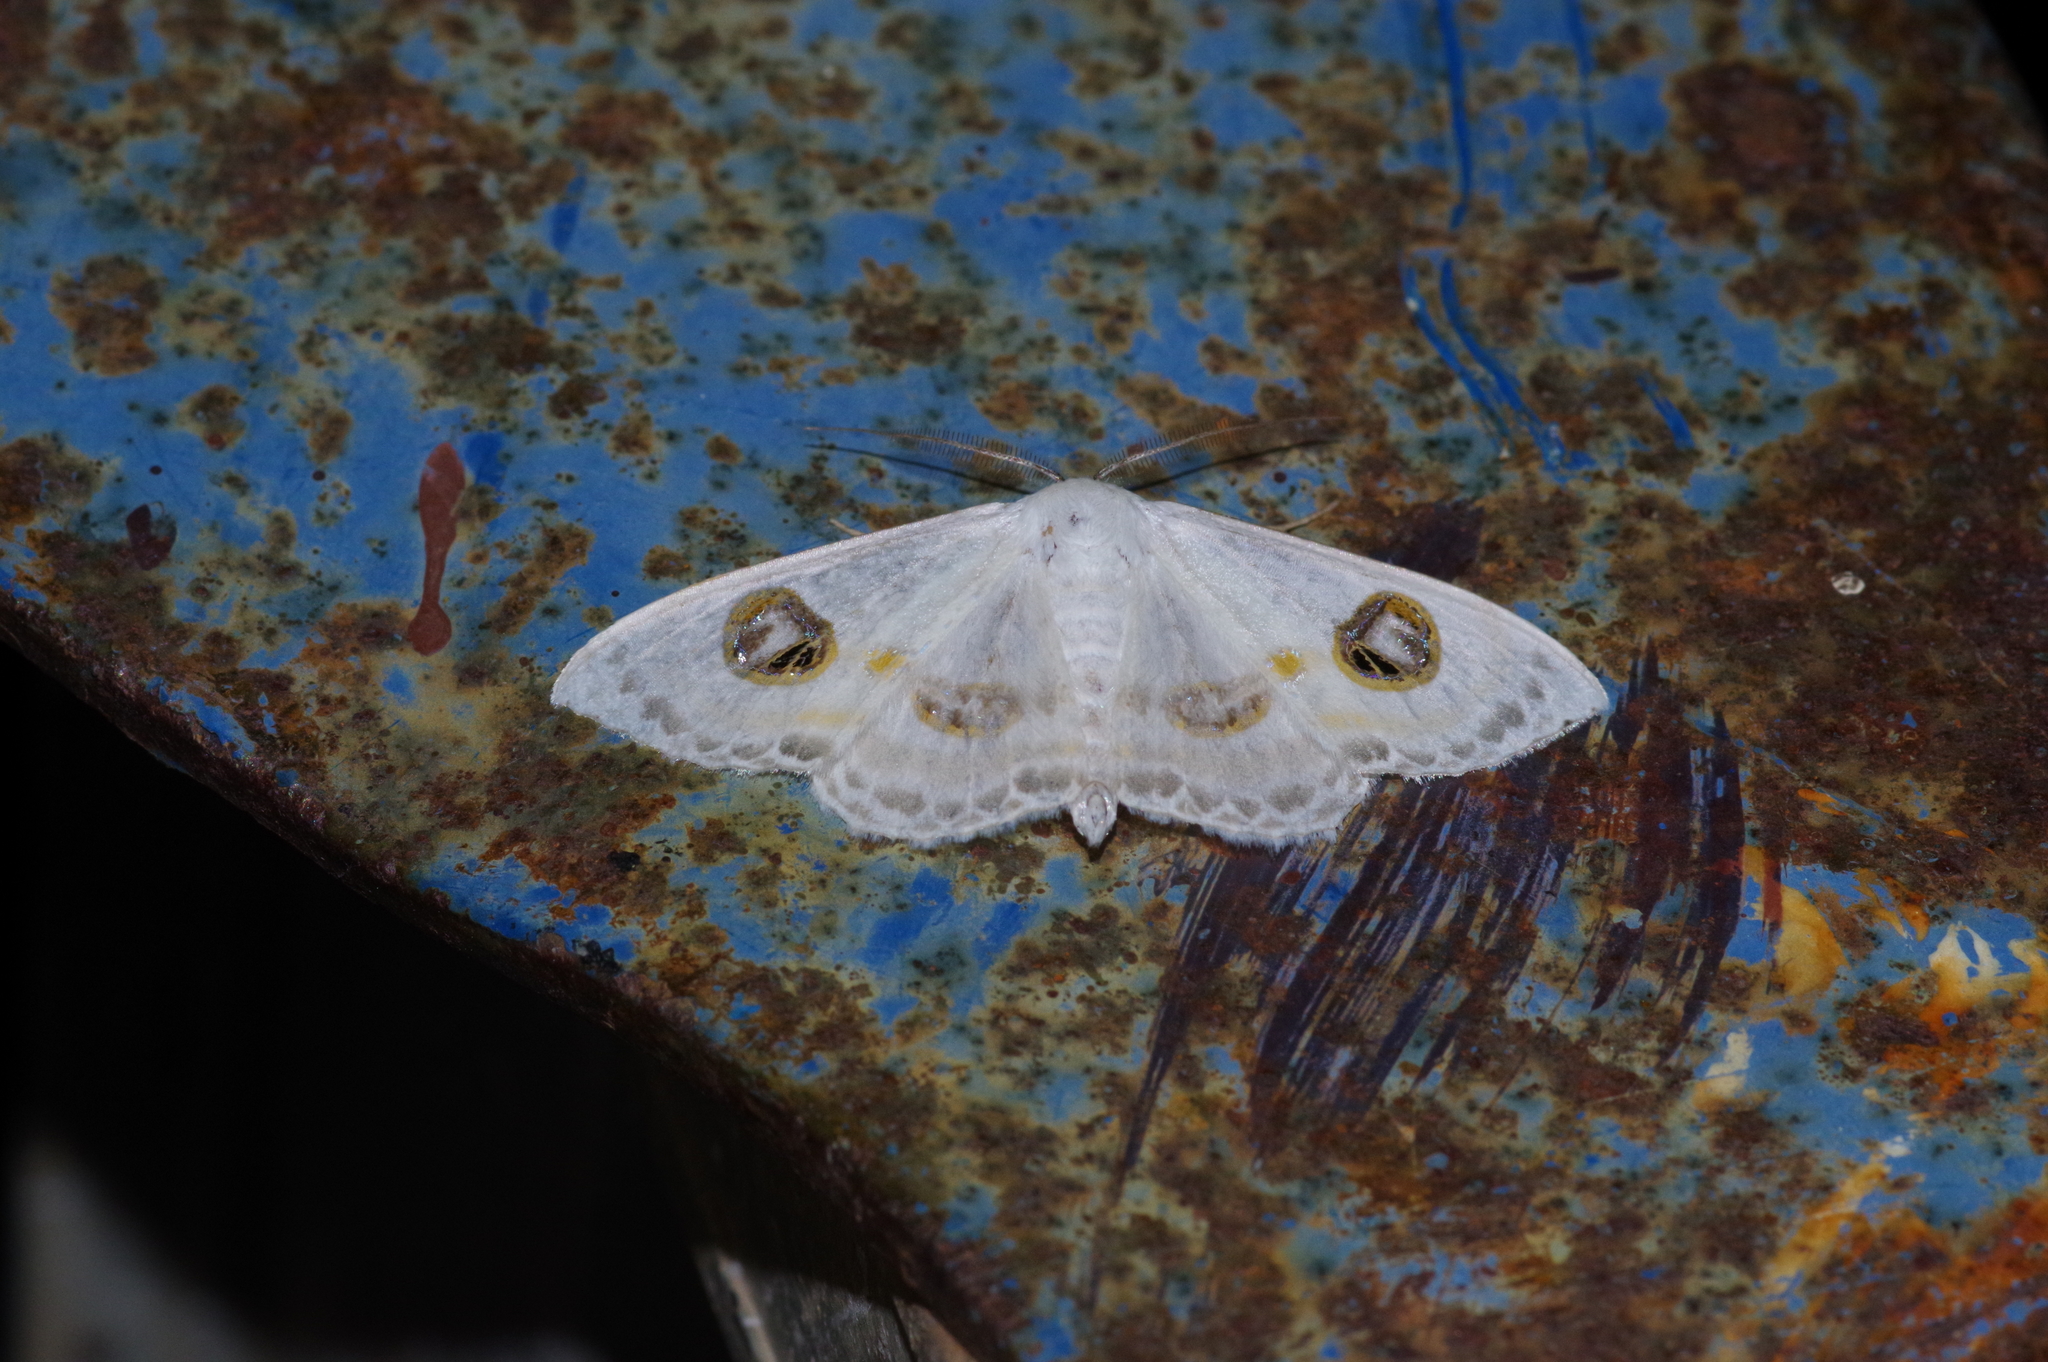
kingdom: Animalia
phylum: Arthropoda
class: Insecta
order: Lepidoptera
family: Geometridae
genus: Problepsis
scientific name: Problepsis albidior
